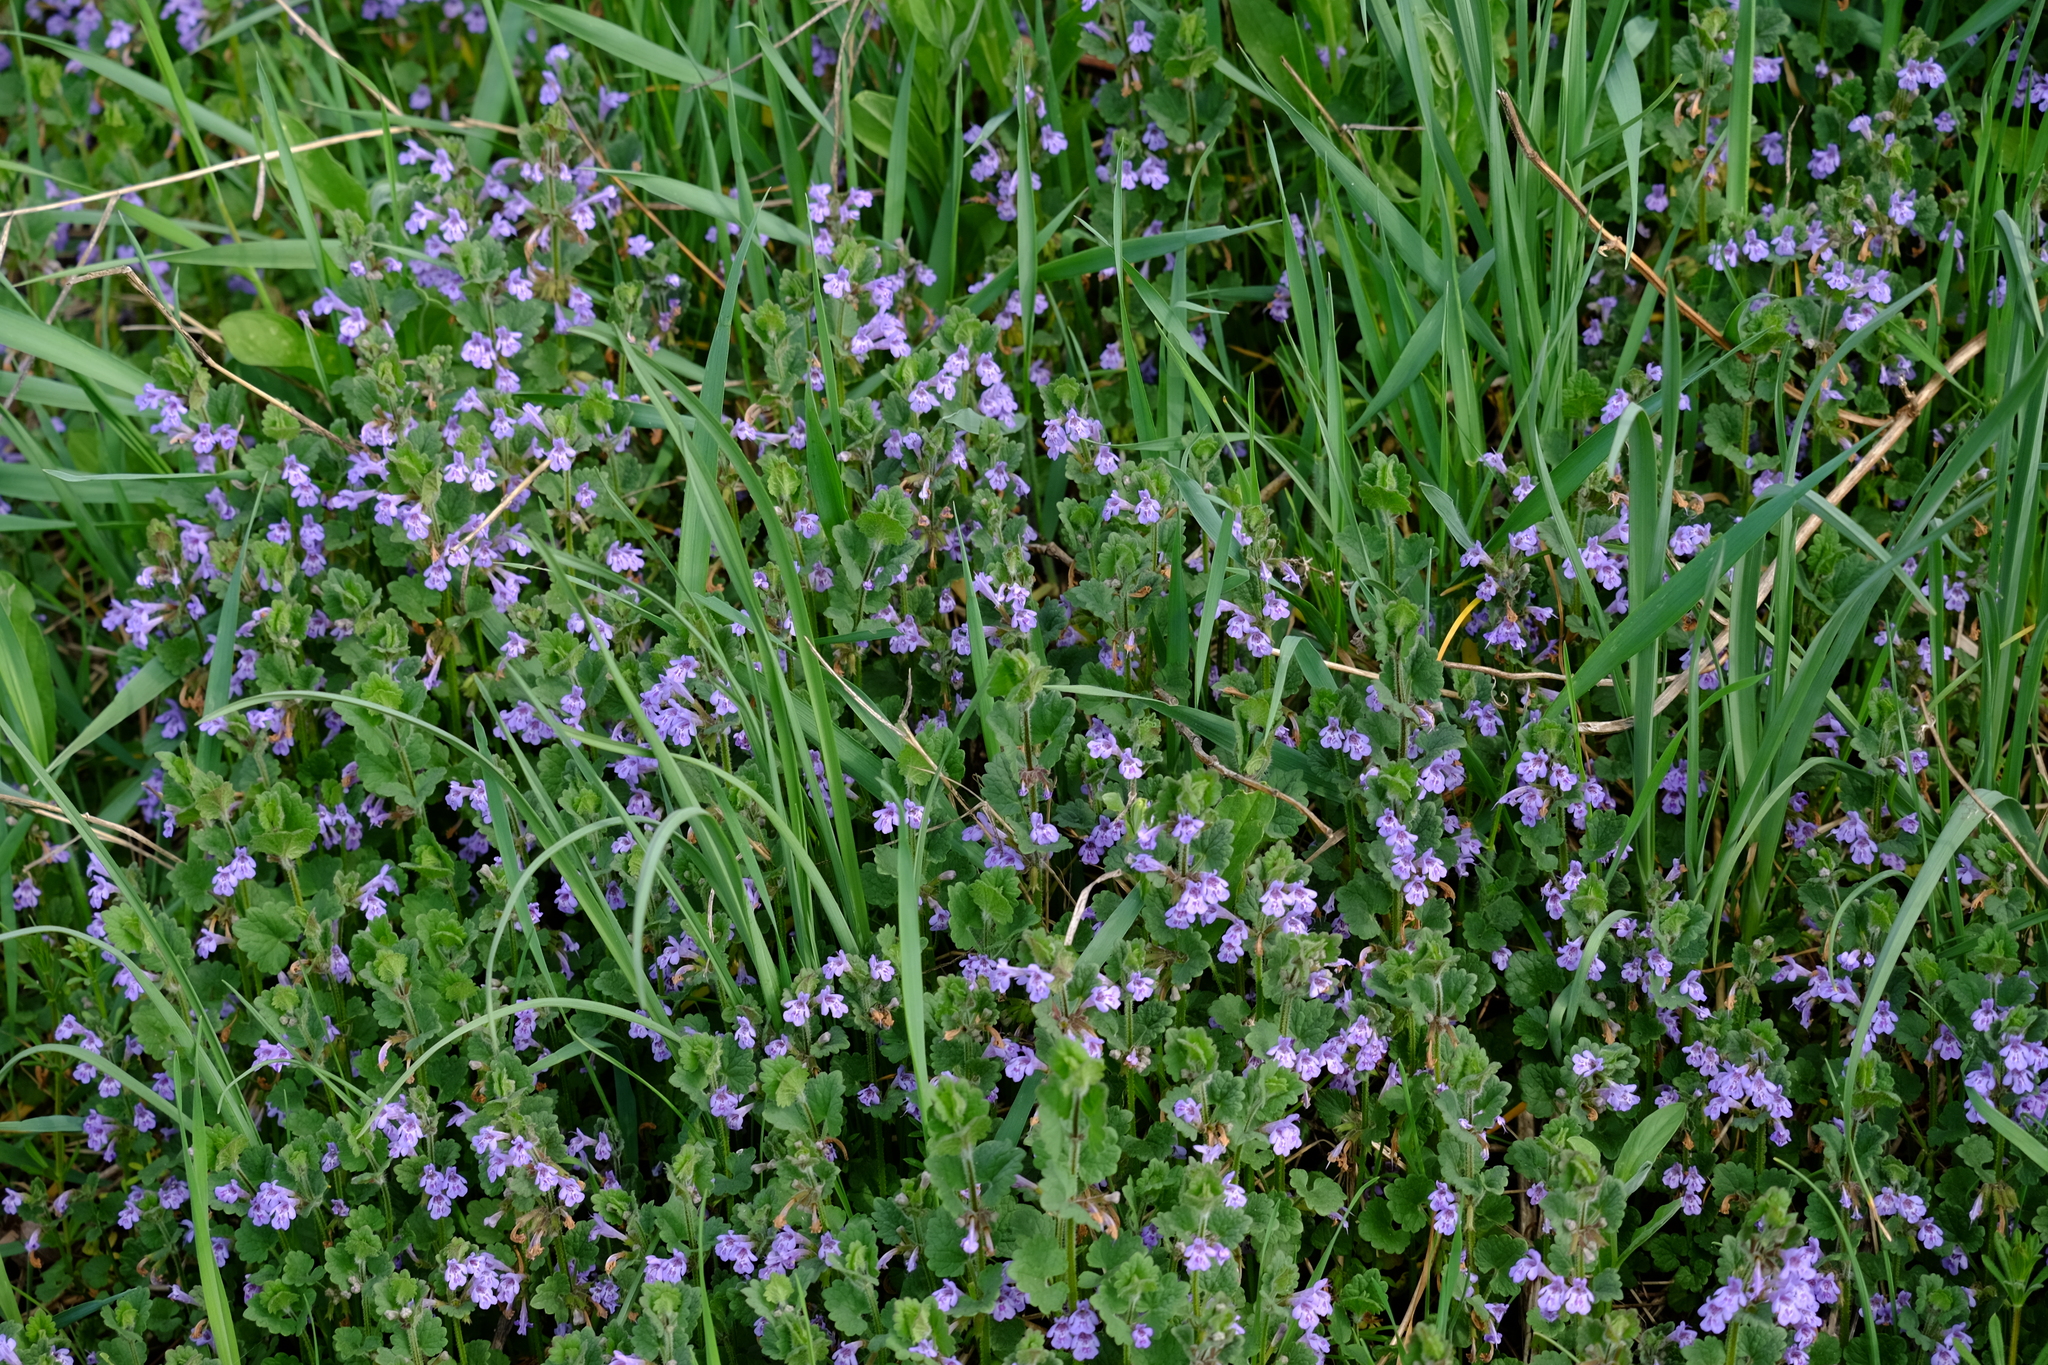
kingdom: Plantae
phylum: Tracheophyta
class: Magnoliopsida
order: Lamiales
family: Lamiaceae
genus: Glechoma
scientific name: Glechoma hederacea
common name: Ground ivy
